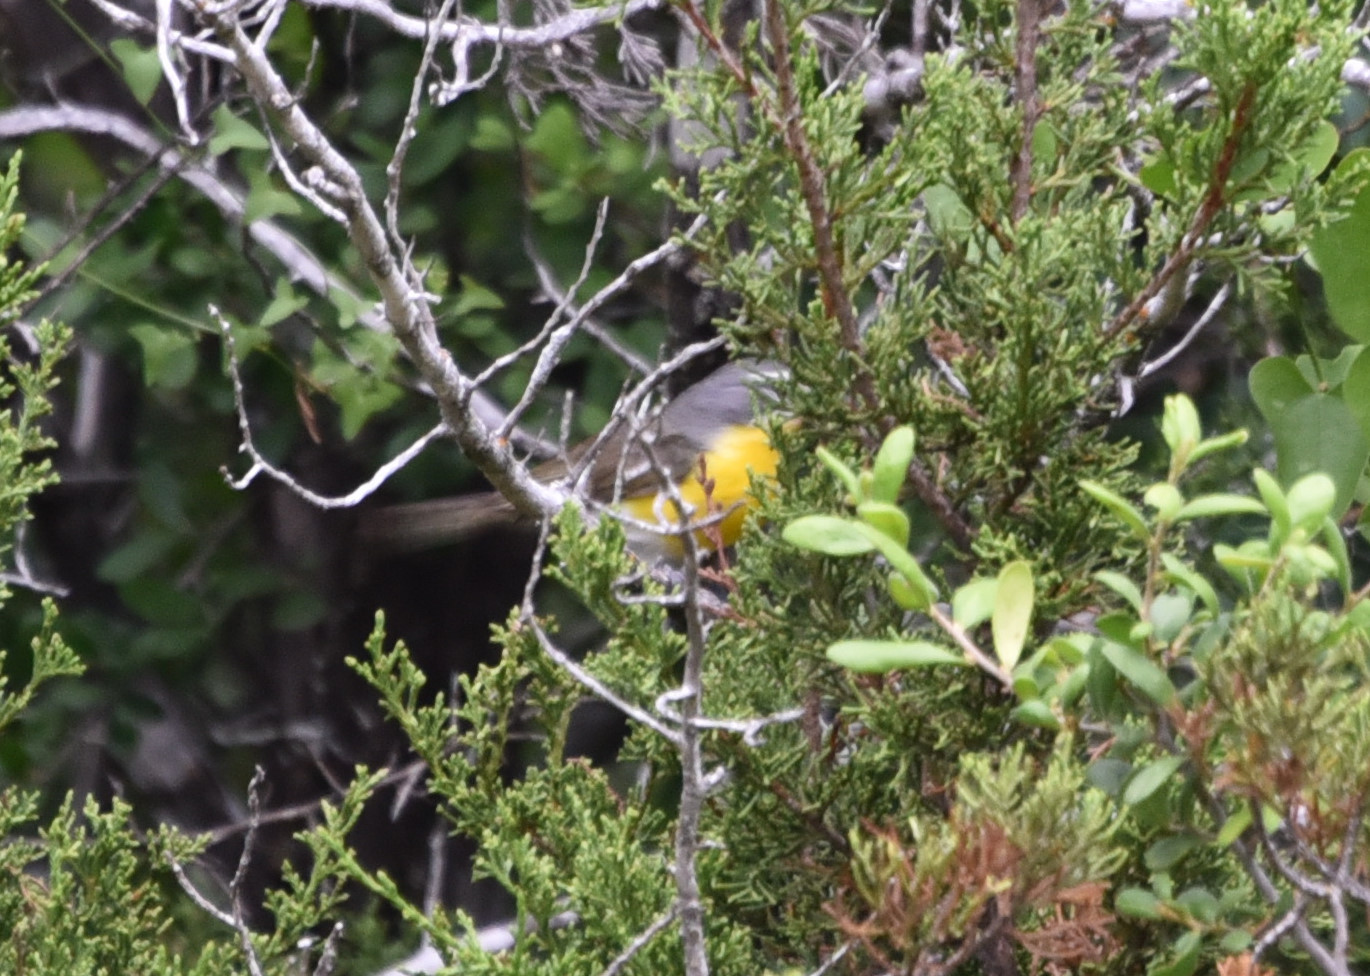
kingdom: Animalia
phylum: Chordata
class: Aves
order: Passeriformes
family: Parulidae
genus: Icteria
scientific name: Icteria virens
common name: Yellow-breasted chat
